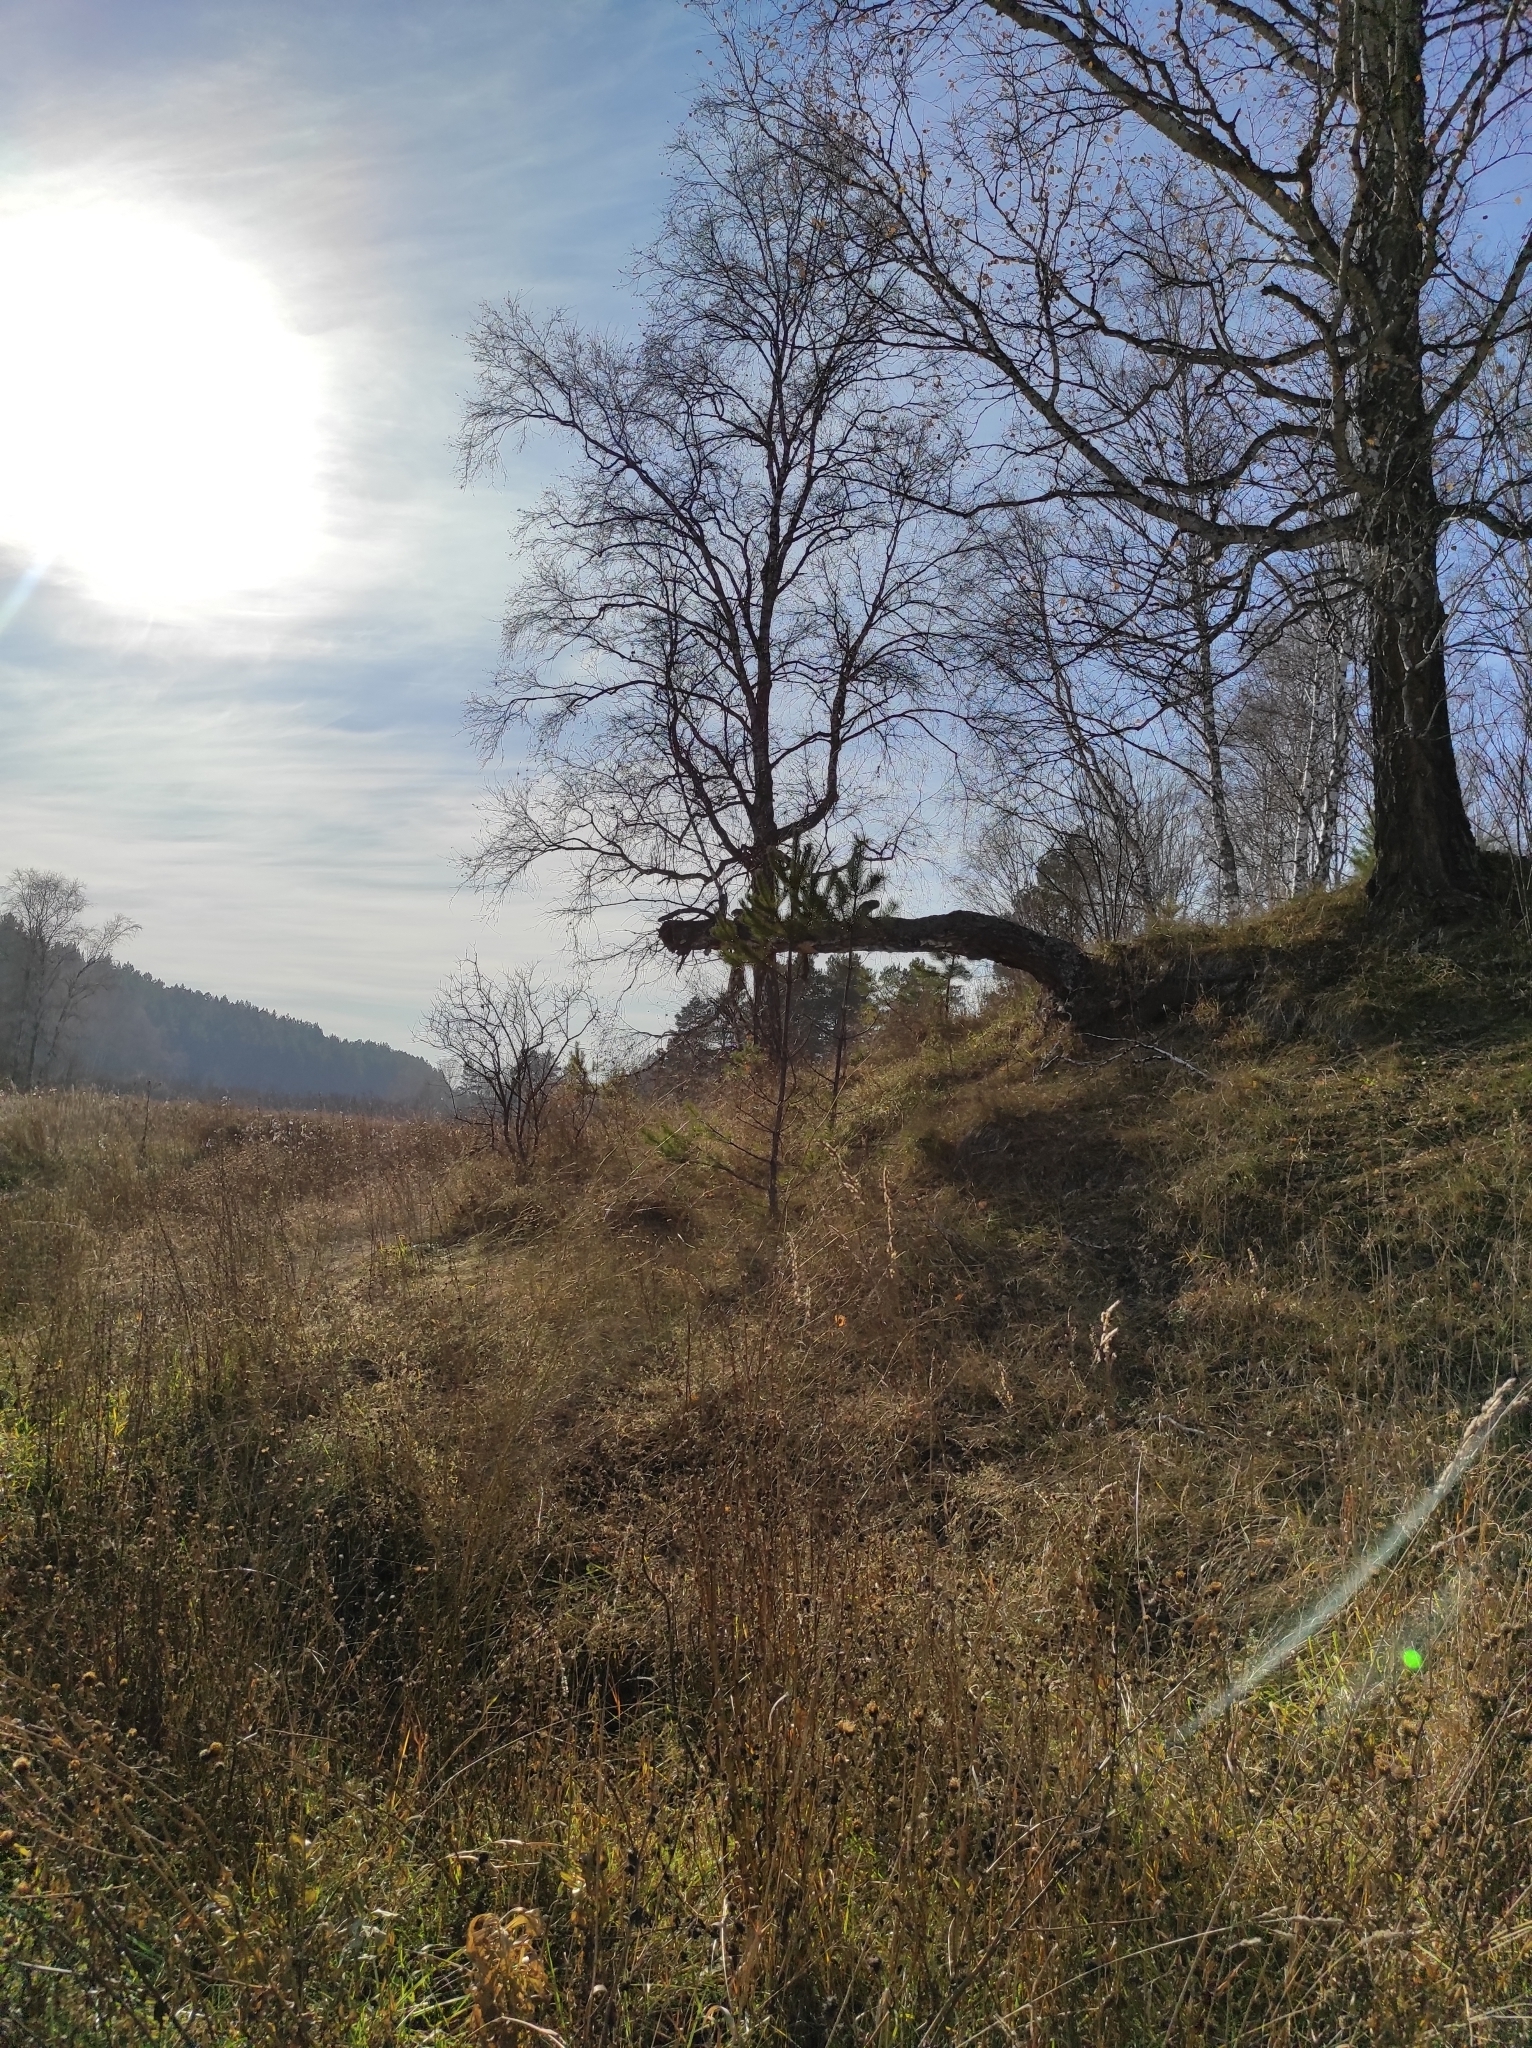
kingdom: Plantae
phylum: Tracheophyta
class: Pinopsida
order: Pinales
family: Pinaceae
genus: Pinus
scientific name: Pinus sylvestris
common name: Scots pine
